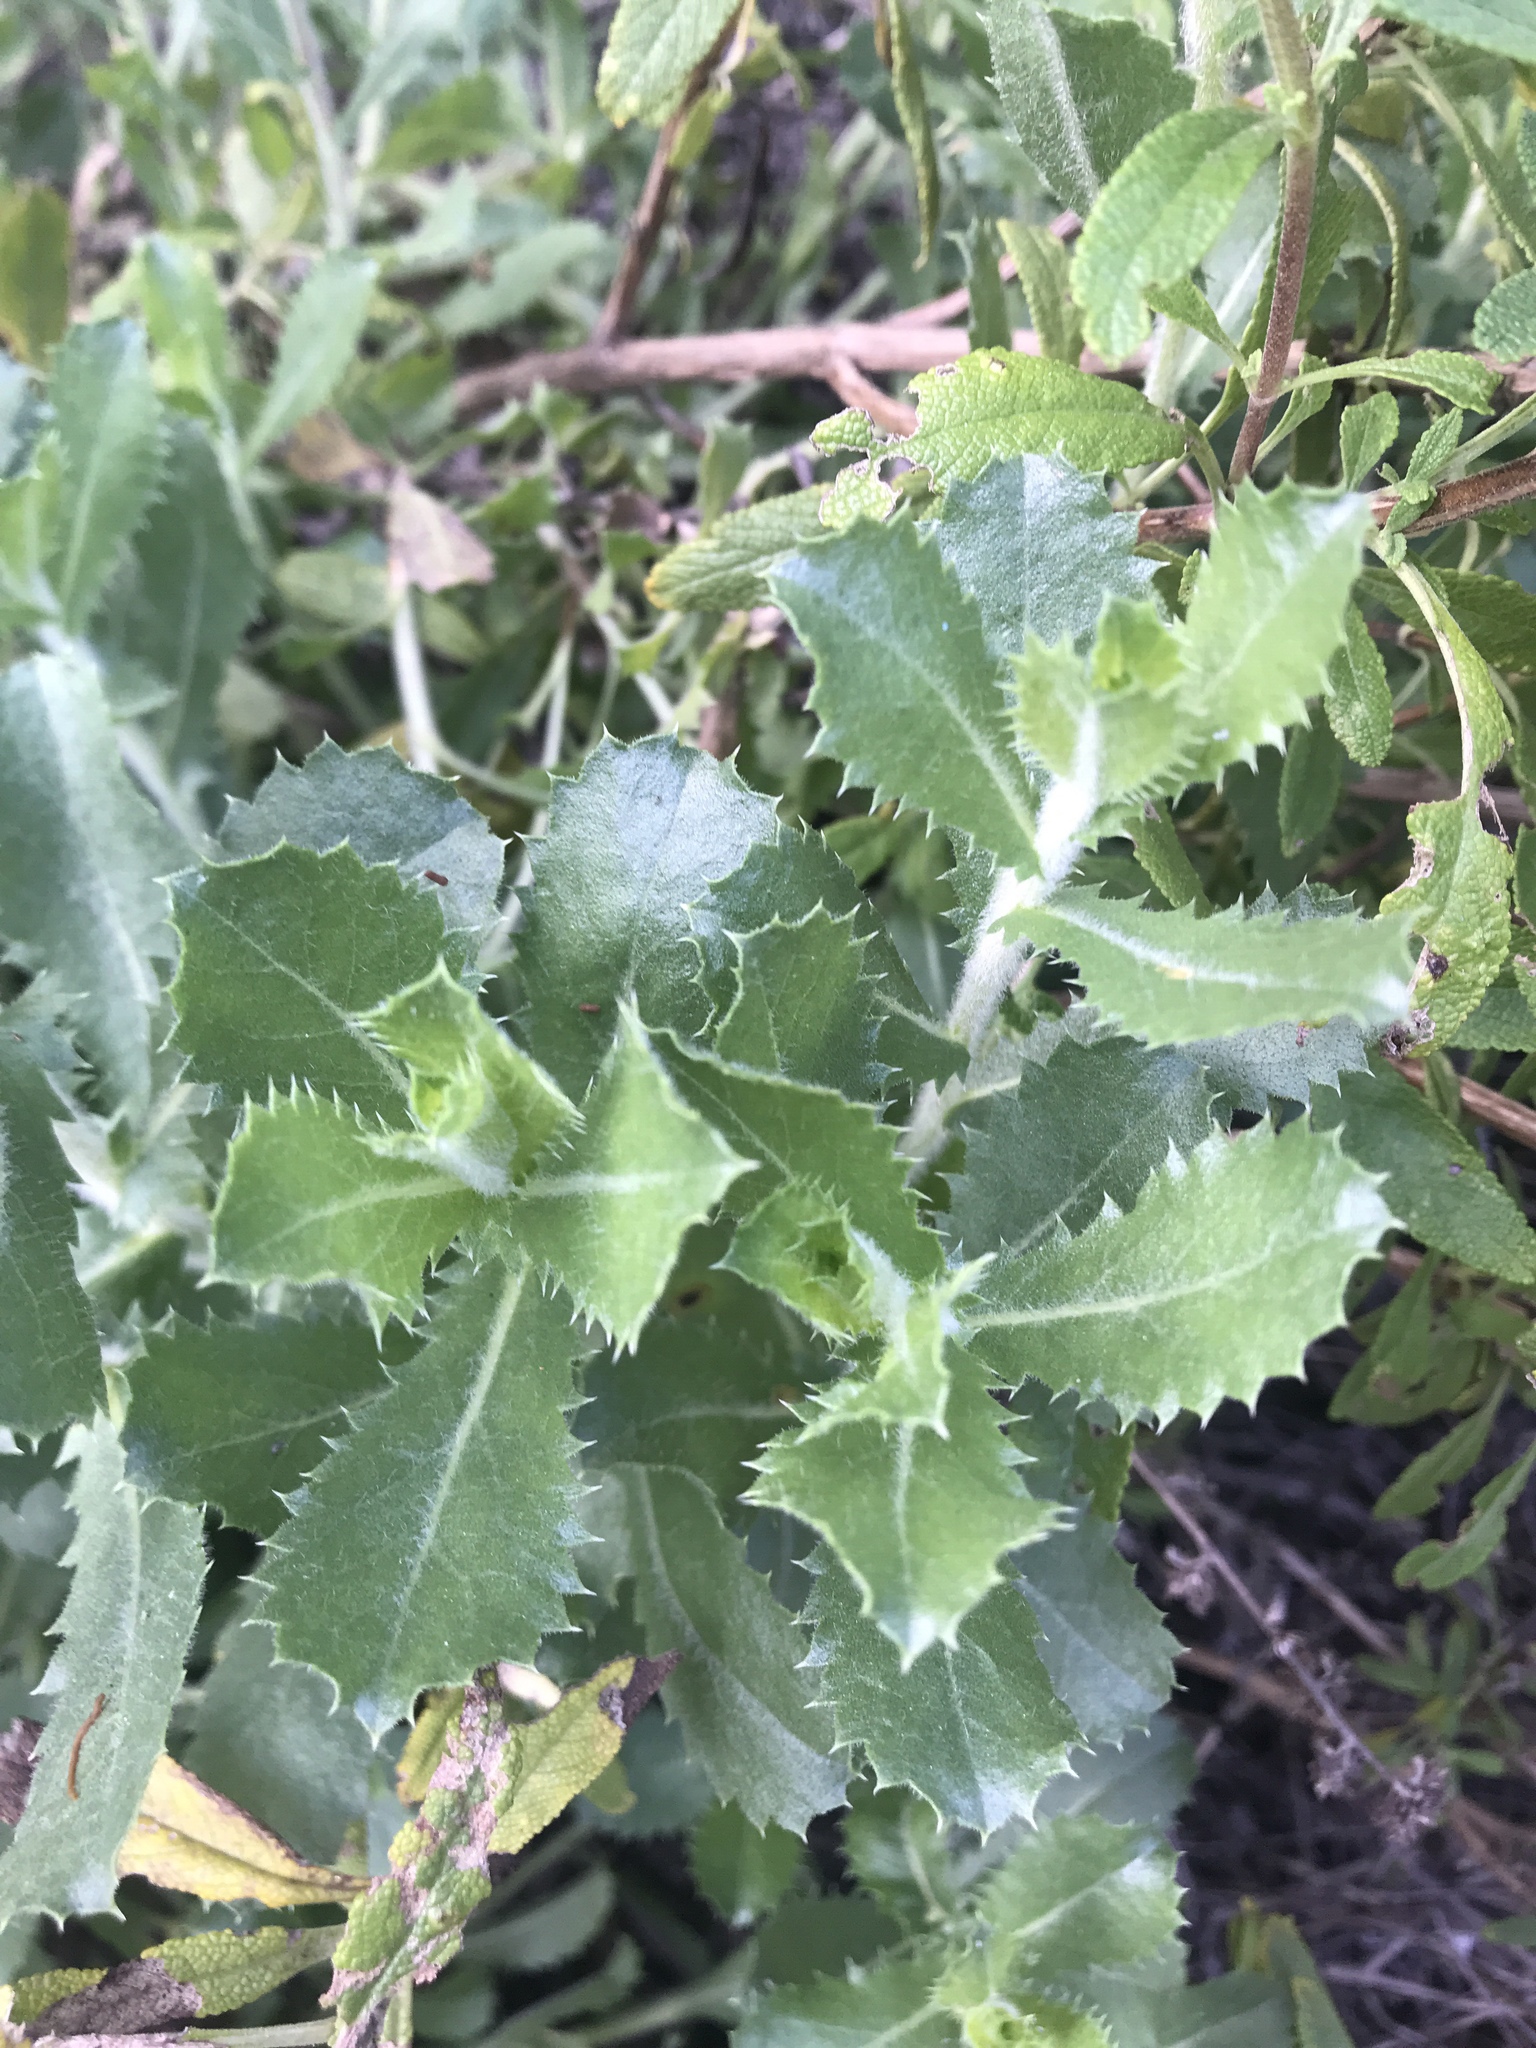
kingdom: Plantae
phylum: Tracheophyta
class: Magnoliopsida
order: Asterales
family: Asteraceae
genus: Hazardia
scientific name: Hazardia squarrosa
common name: Saw-tooth goldenbush
